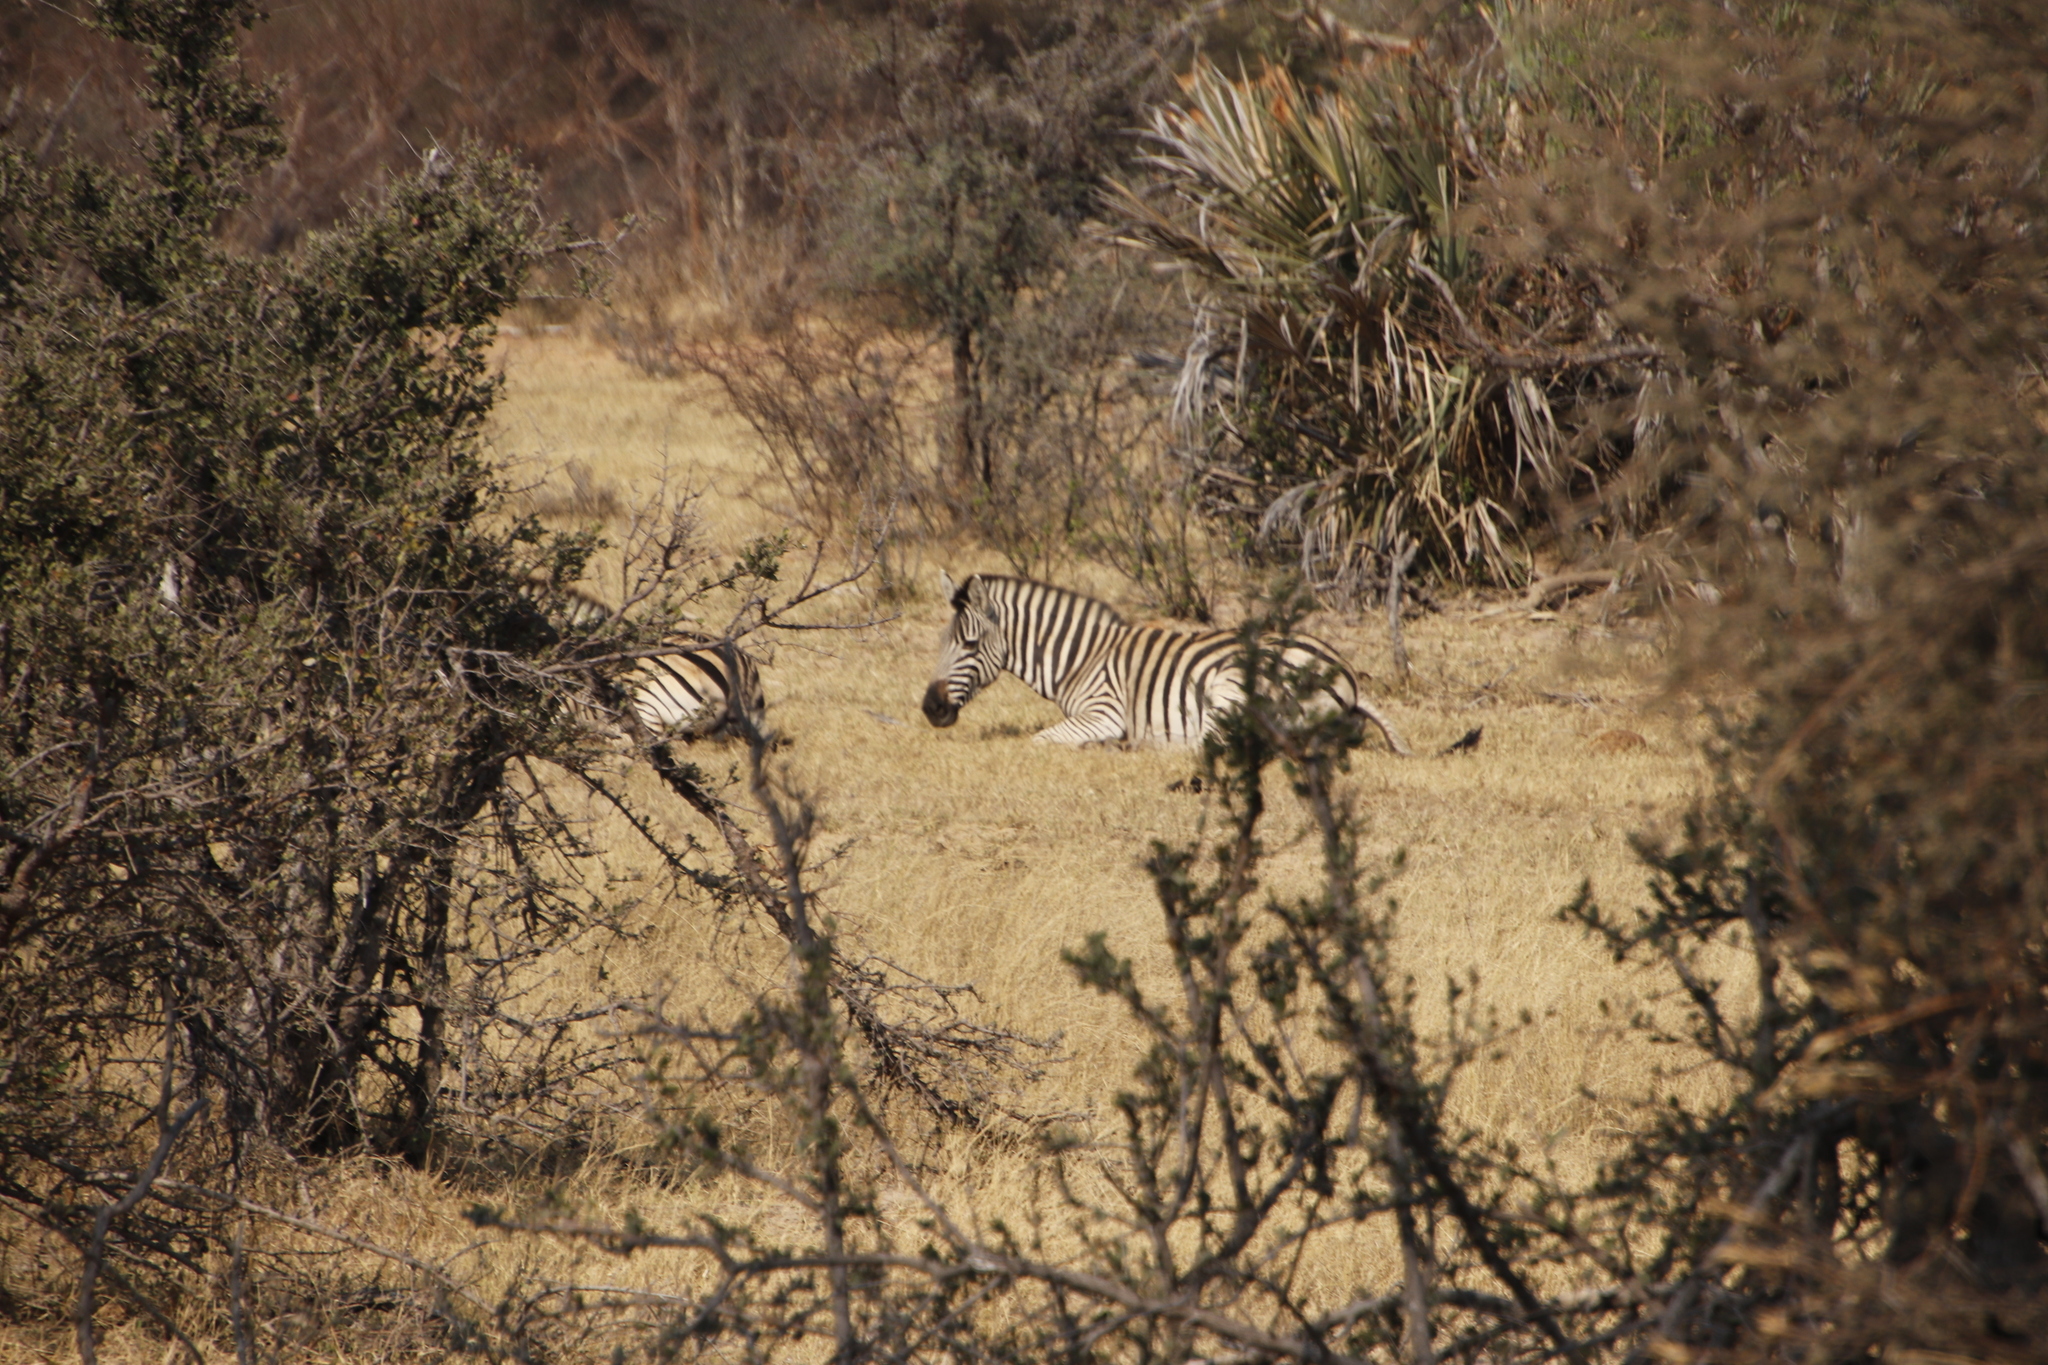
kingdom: Animalia
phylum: Chordata
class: Mammalia
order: Perissodactyla
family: Equidae
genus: Equus
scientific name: Equus quagga
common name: Plains zebra
